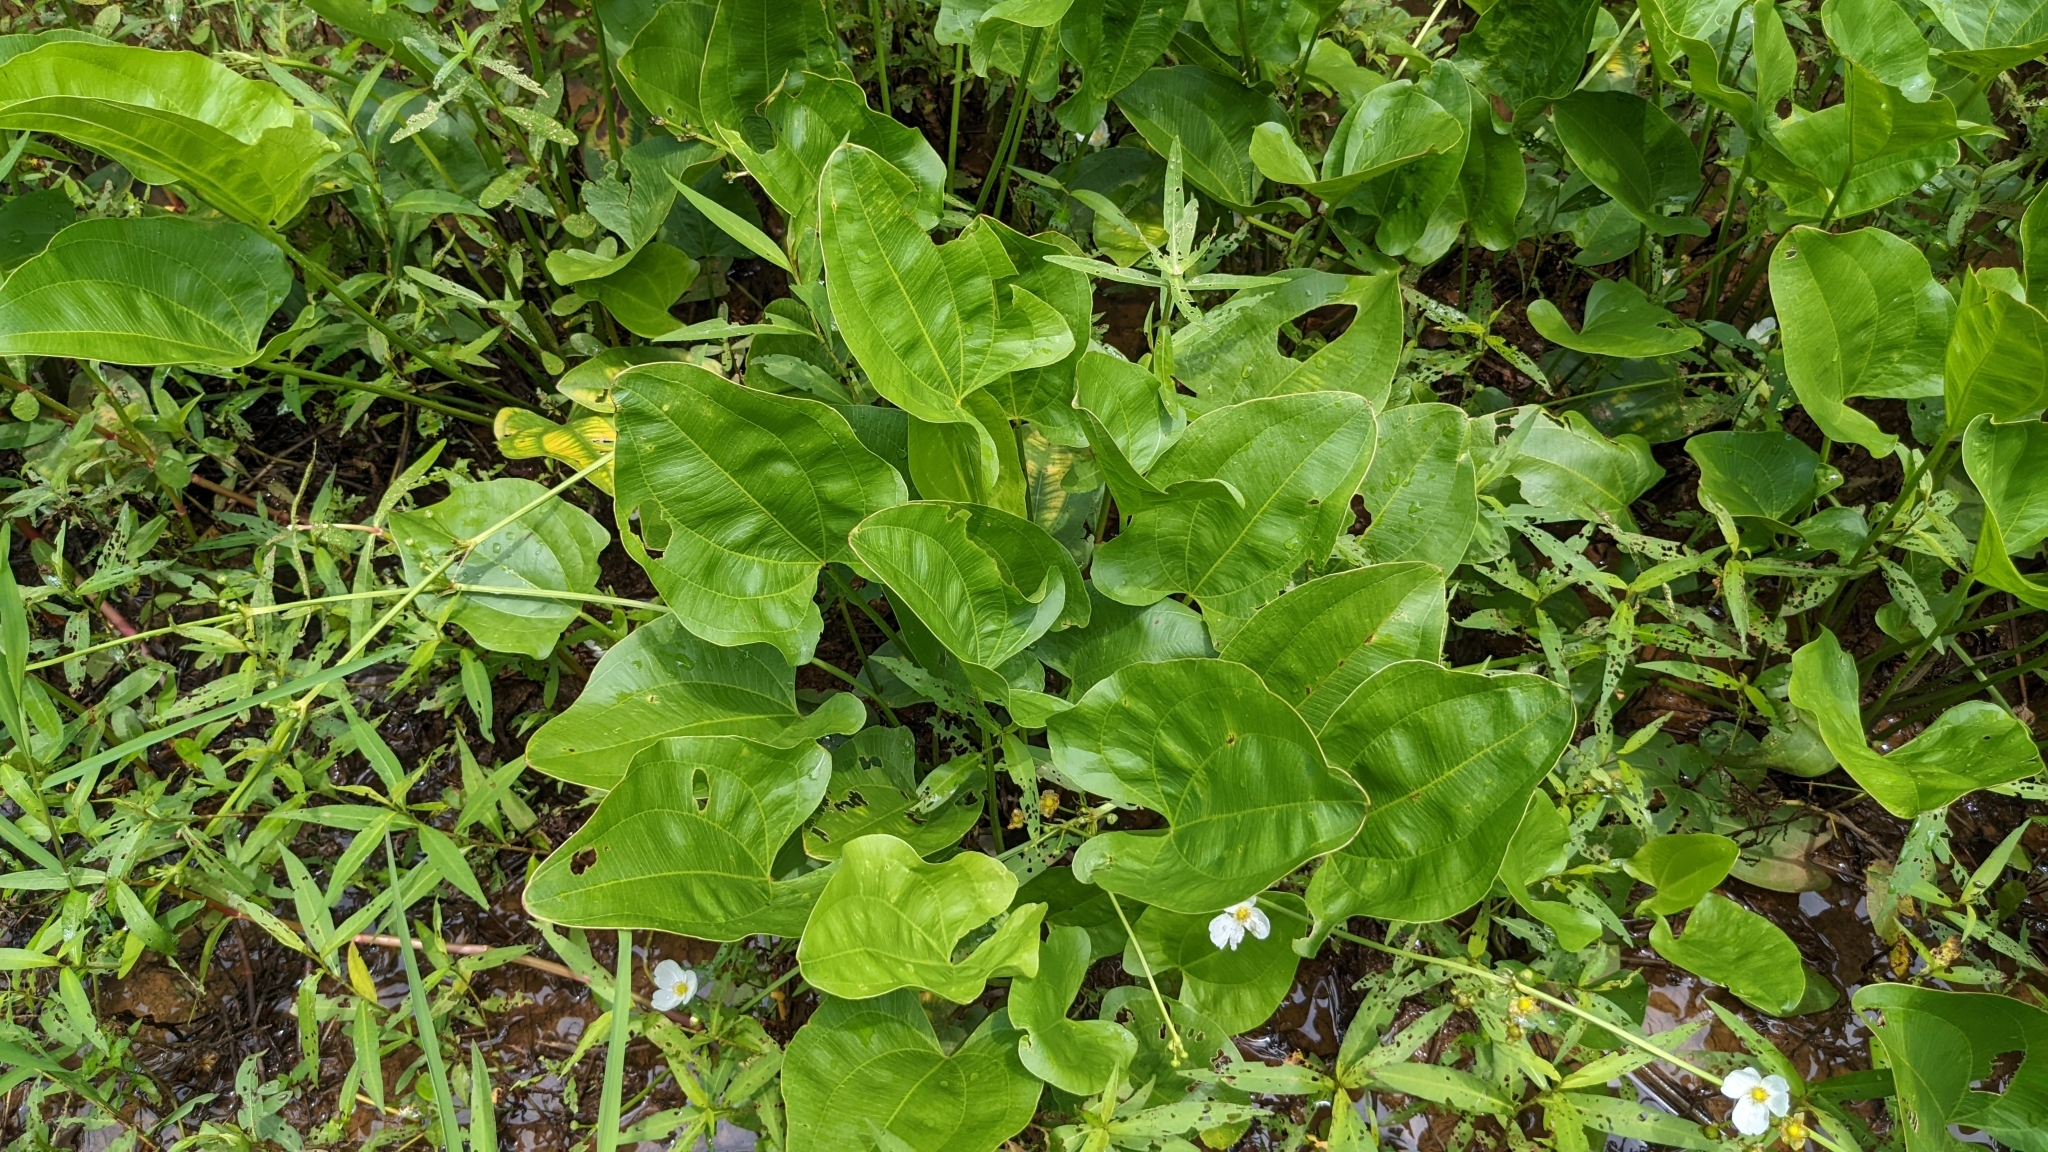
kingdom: Plantae
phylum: Tracheophyta
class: Liliopsida
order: Alismatales
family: Alismataceae
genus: Aquarius
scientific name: Aquarius cordifolius
